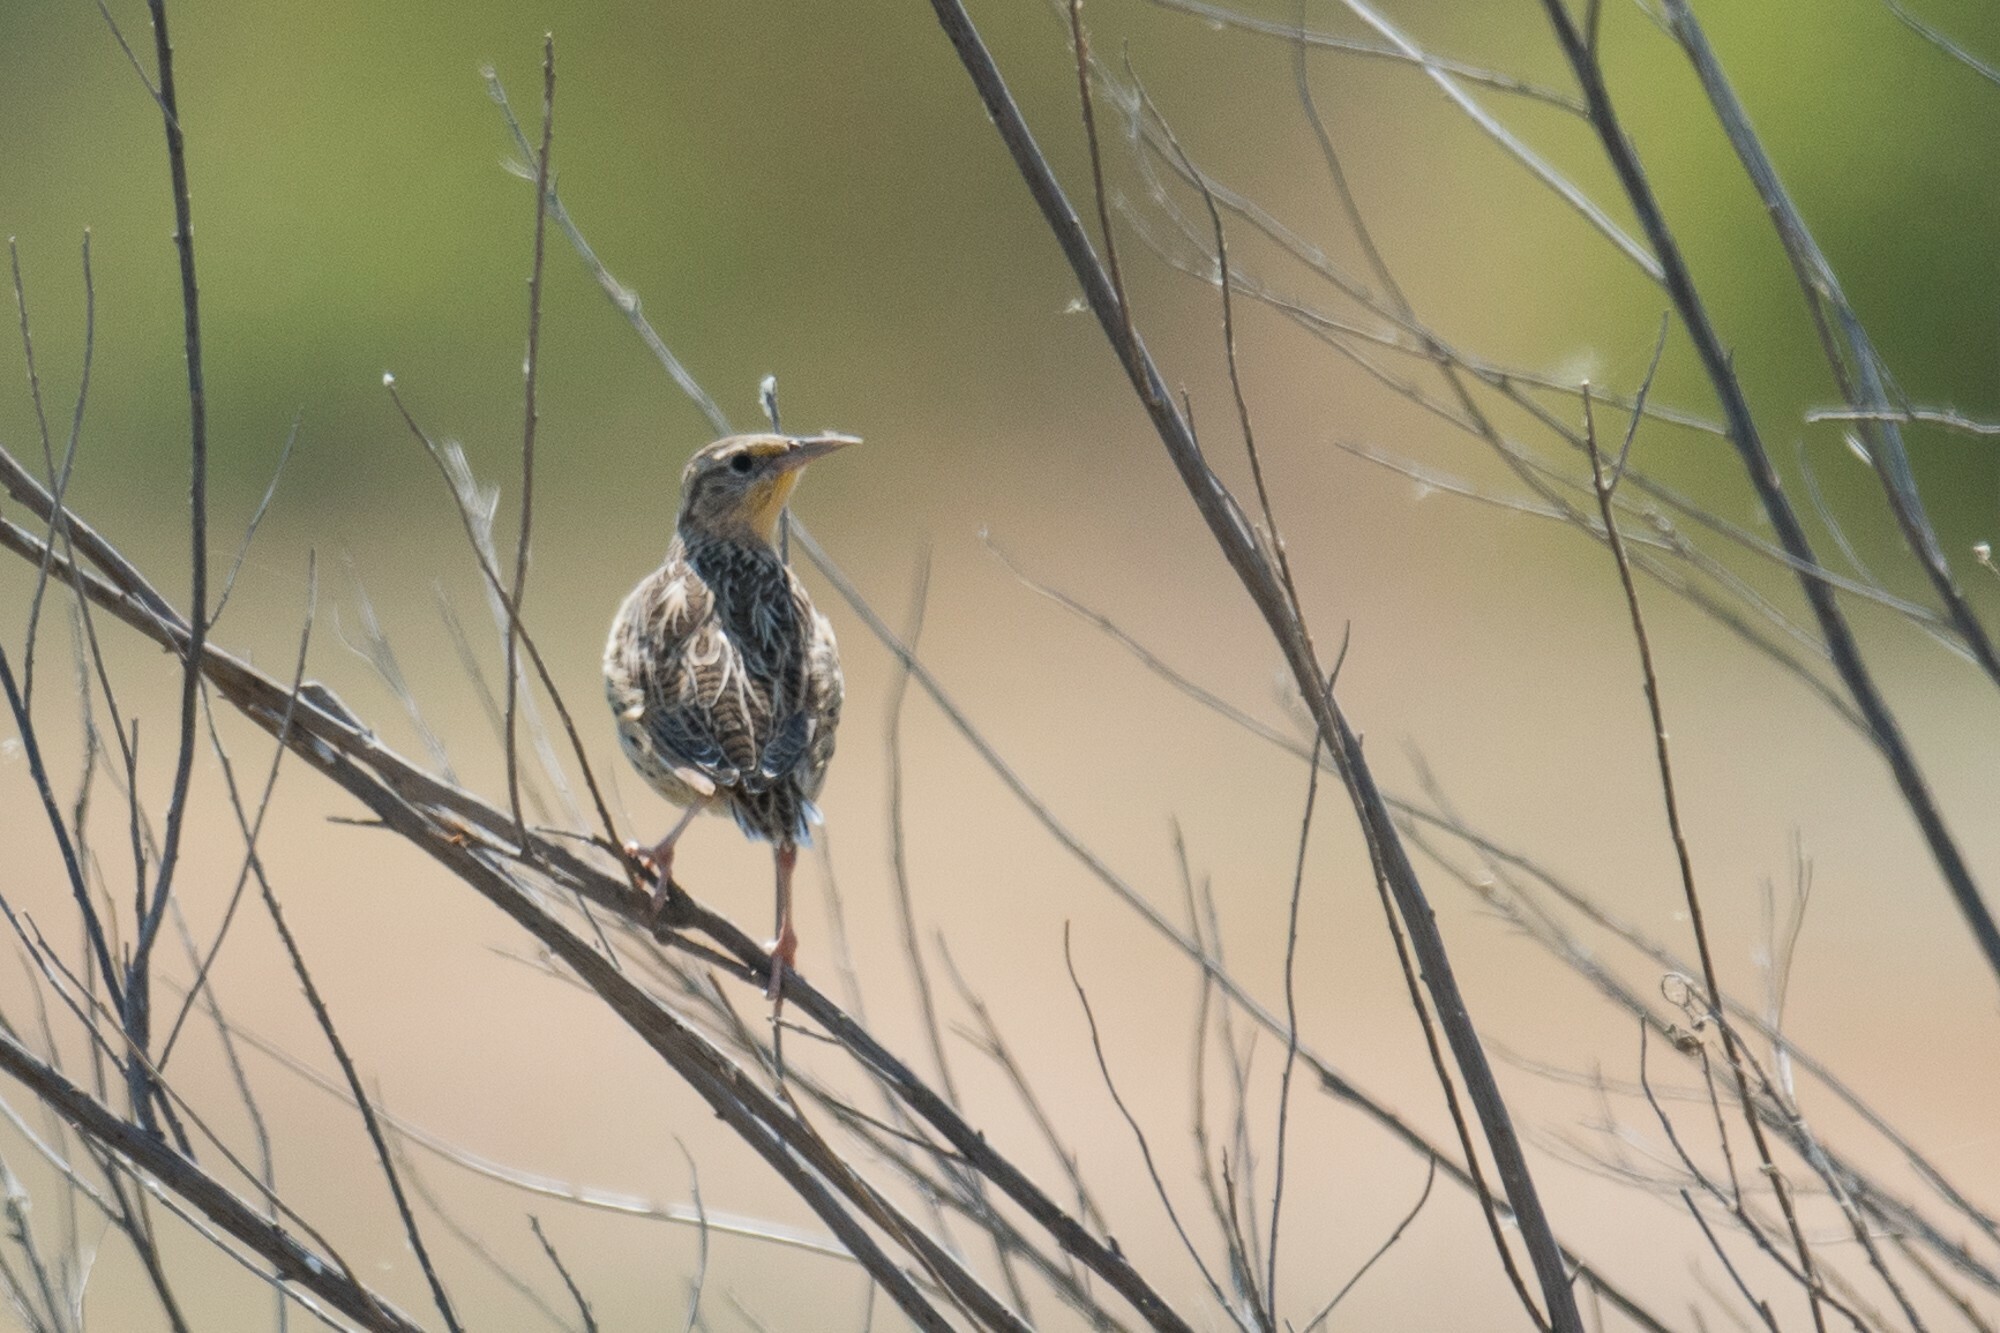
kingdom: Animalia
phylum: Chordata
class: Aves
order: Passeriformes
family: Icteridae
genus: Sturnella
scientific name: Sturnella neglecta
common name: Western meadowlark
